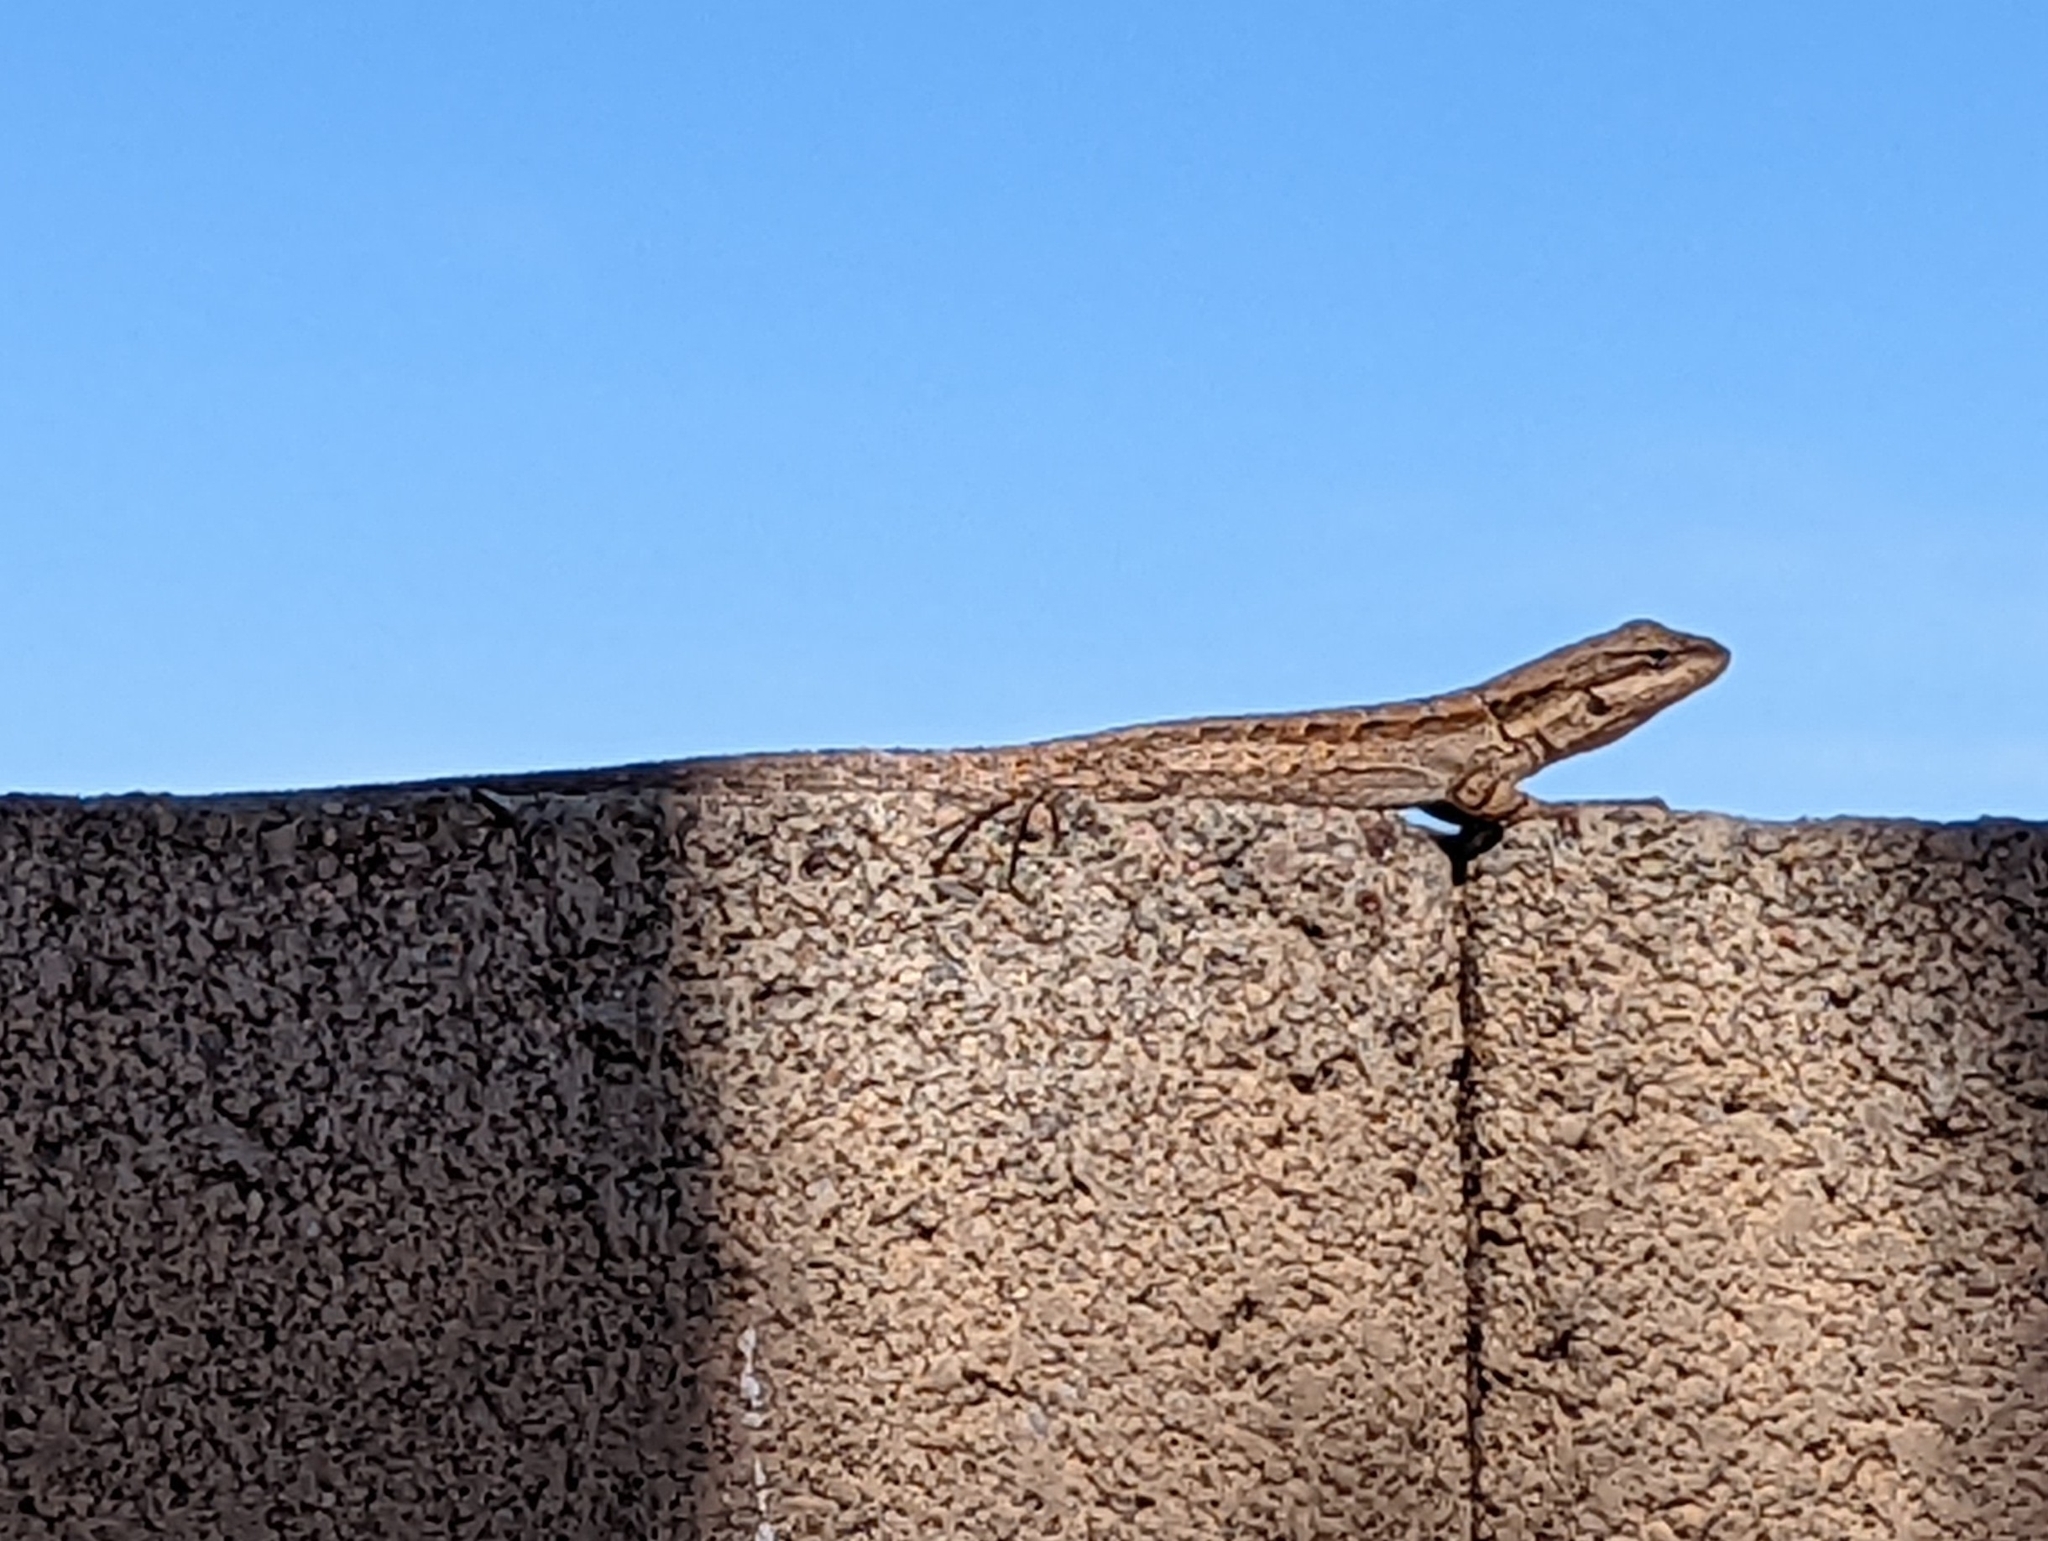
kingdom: Animalia
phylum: Chordata
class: Squamata
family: Phrynosomatidae
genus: Urosaurus
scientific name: Urosaurus ornatus
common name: Ornate tree lizard
